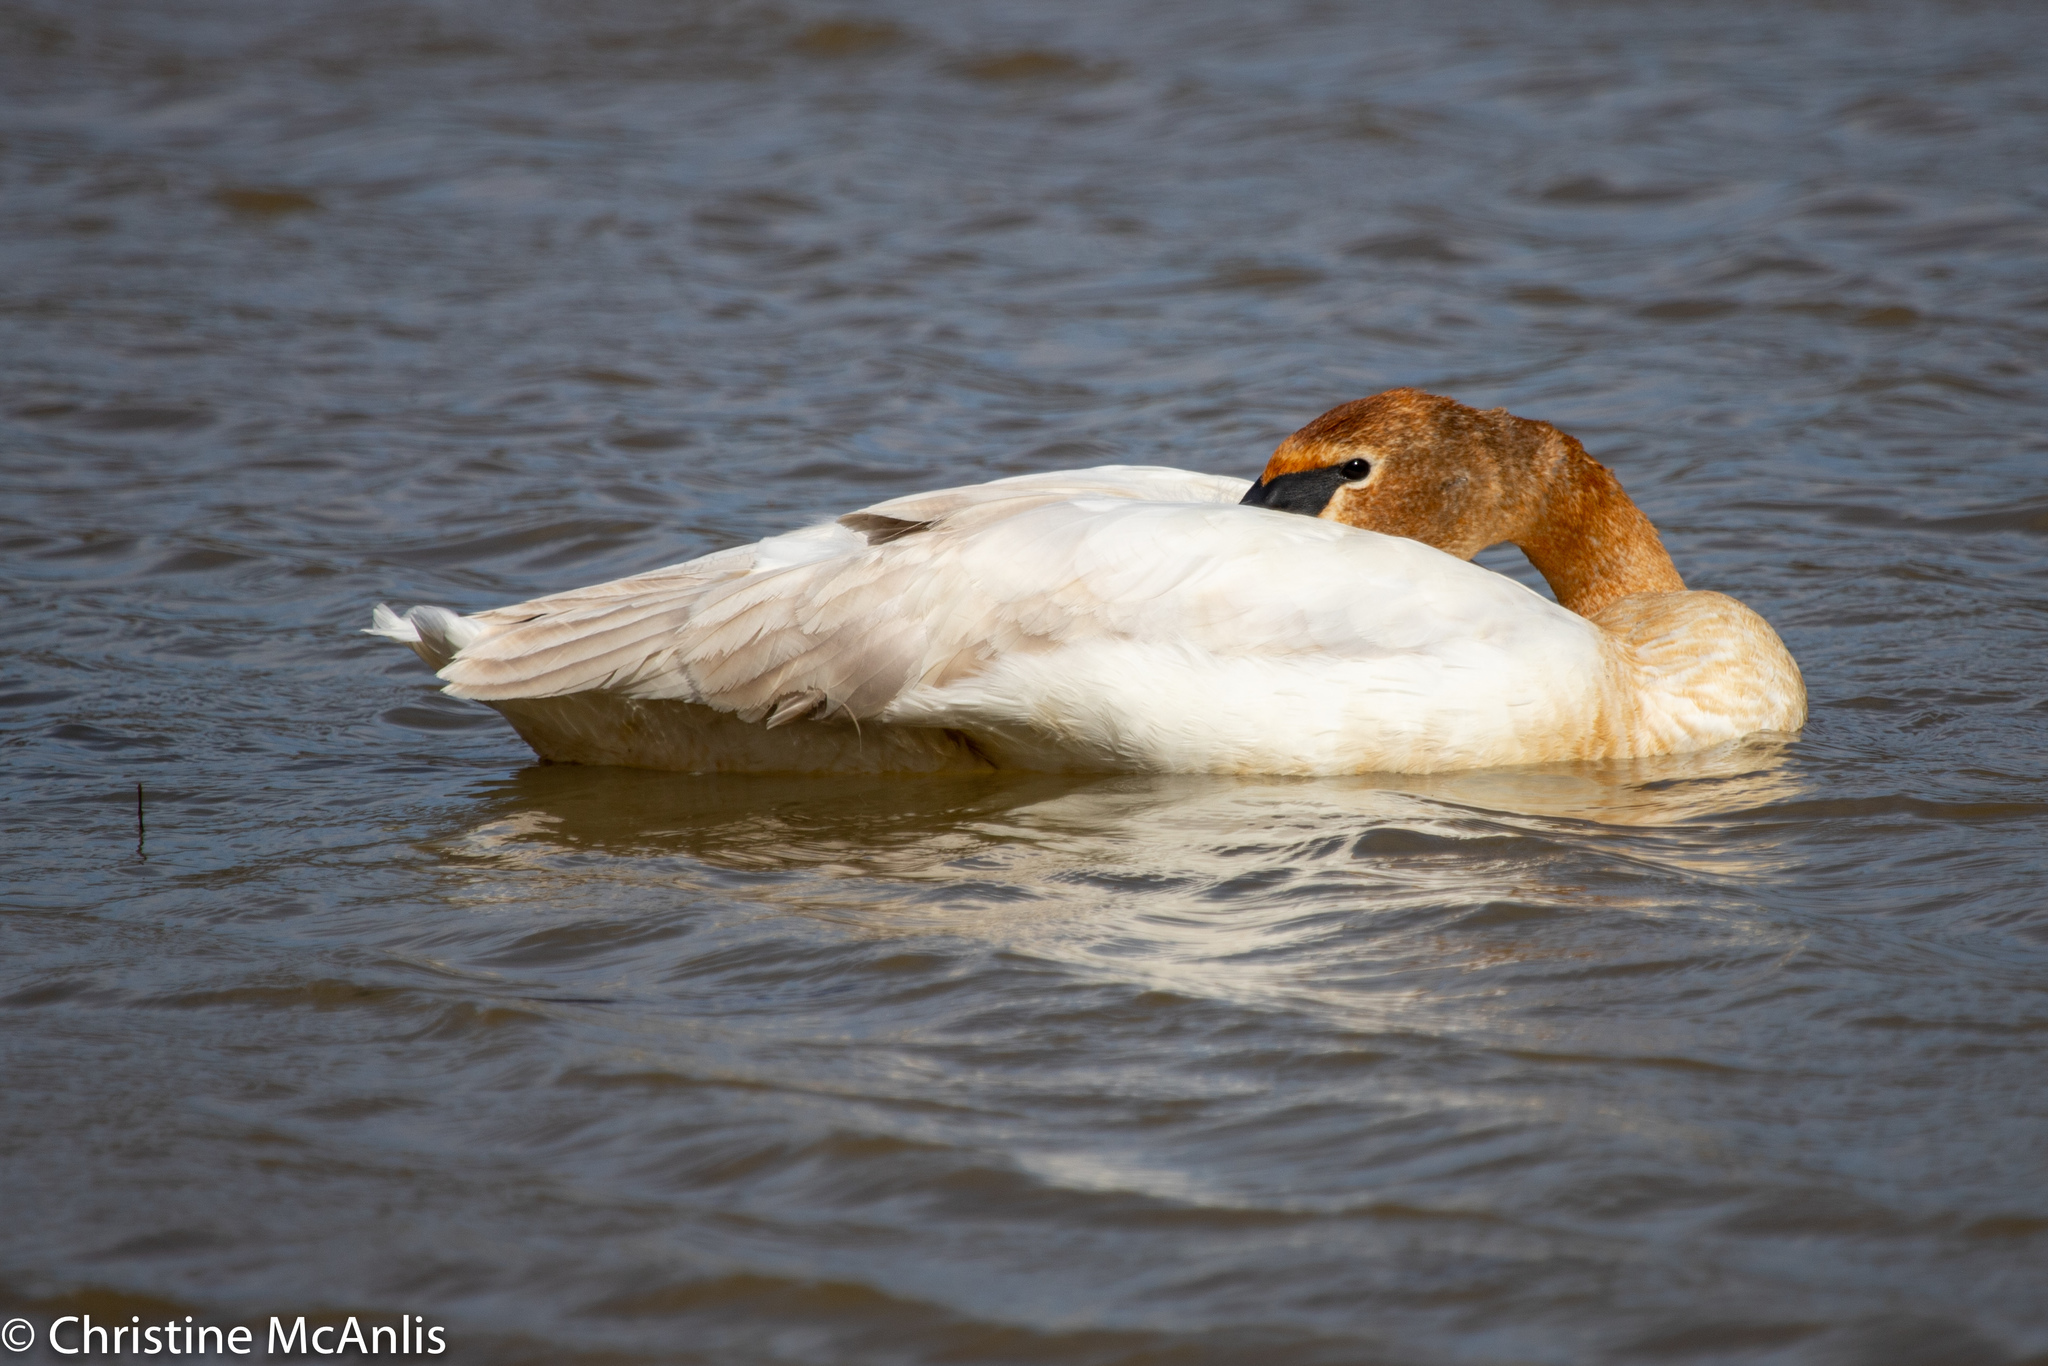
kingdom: Animalia
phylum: Chordata
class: Aves
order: Anseriformes
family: Anatidae
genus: Cygnus
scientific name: Cygnus buccinator
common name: Trumpeter swan
